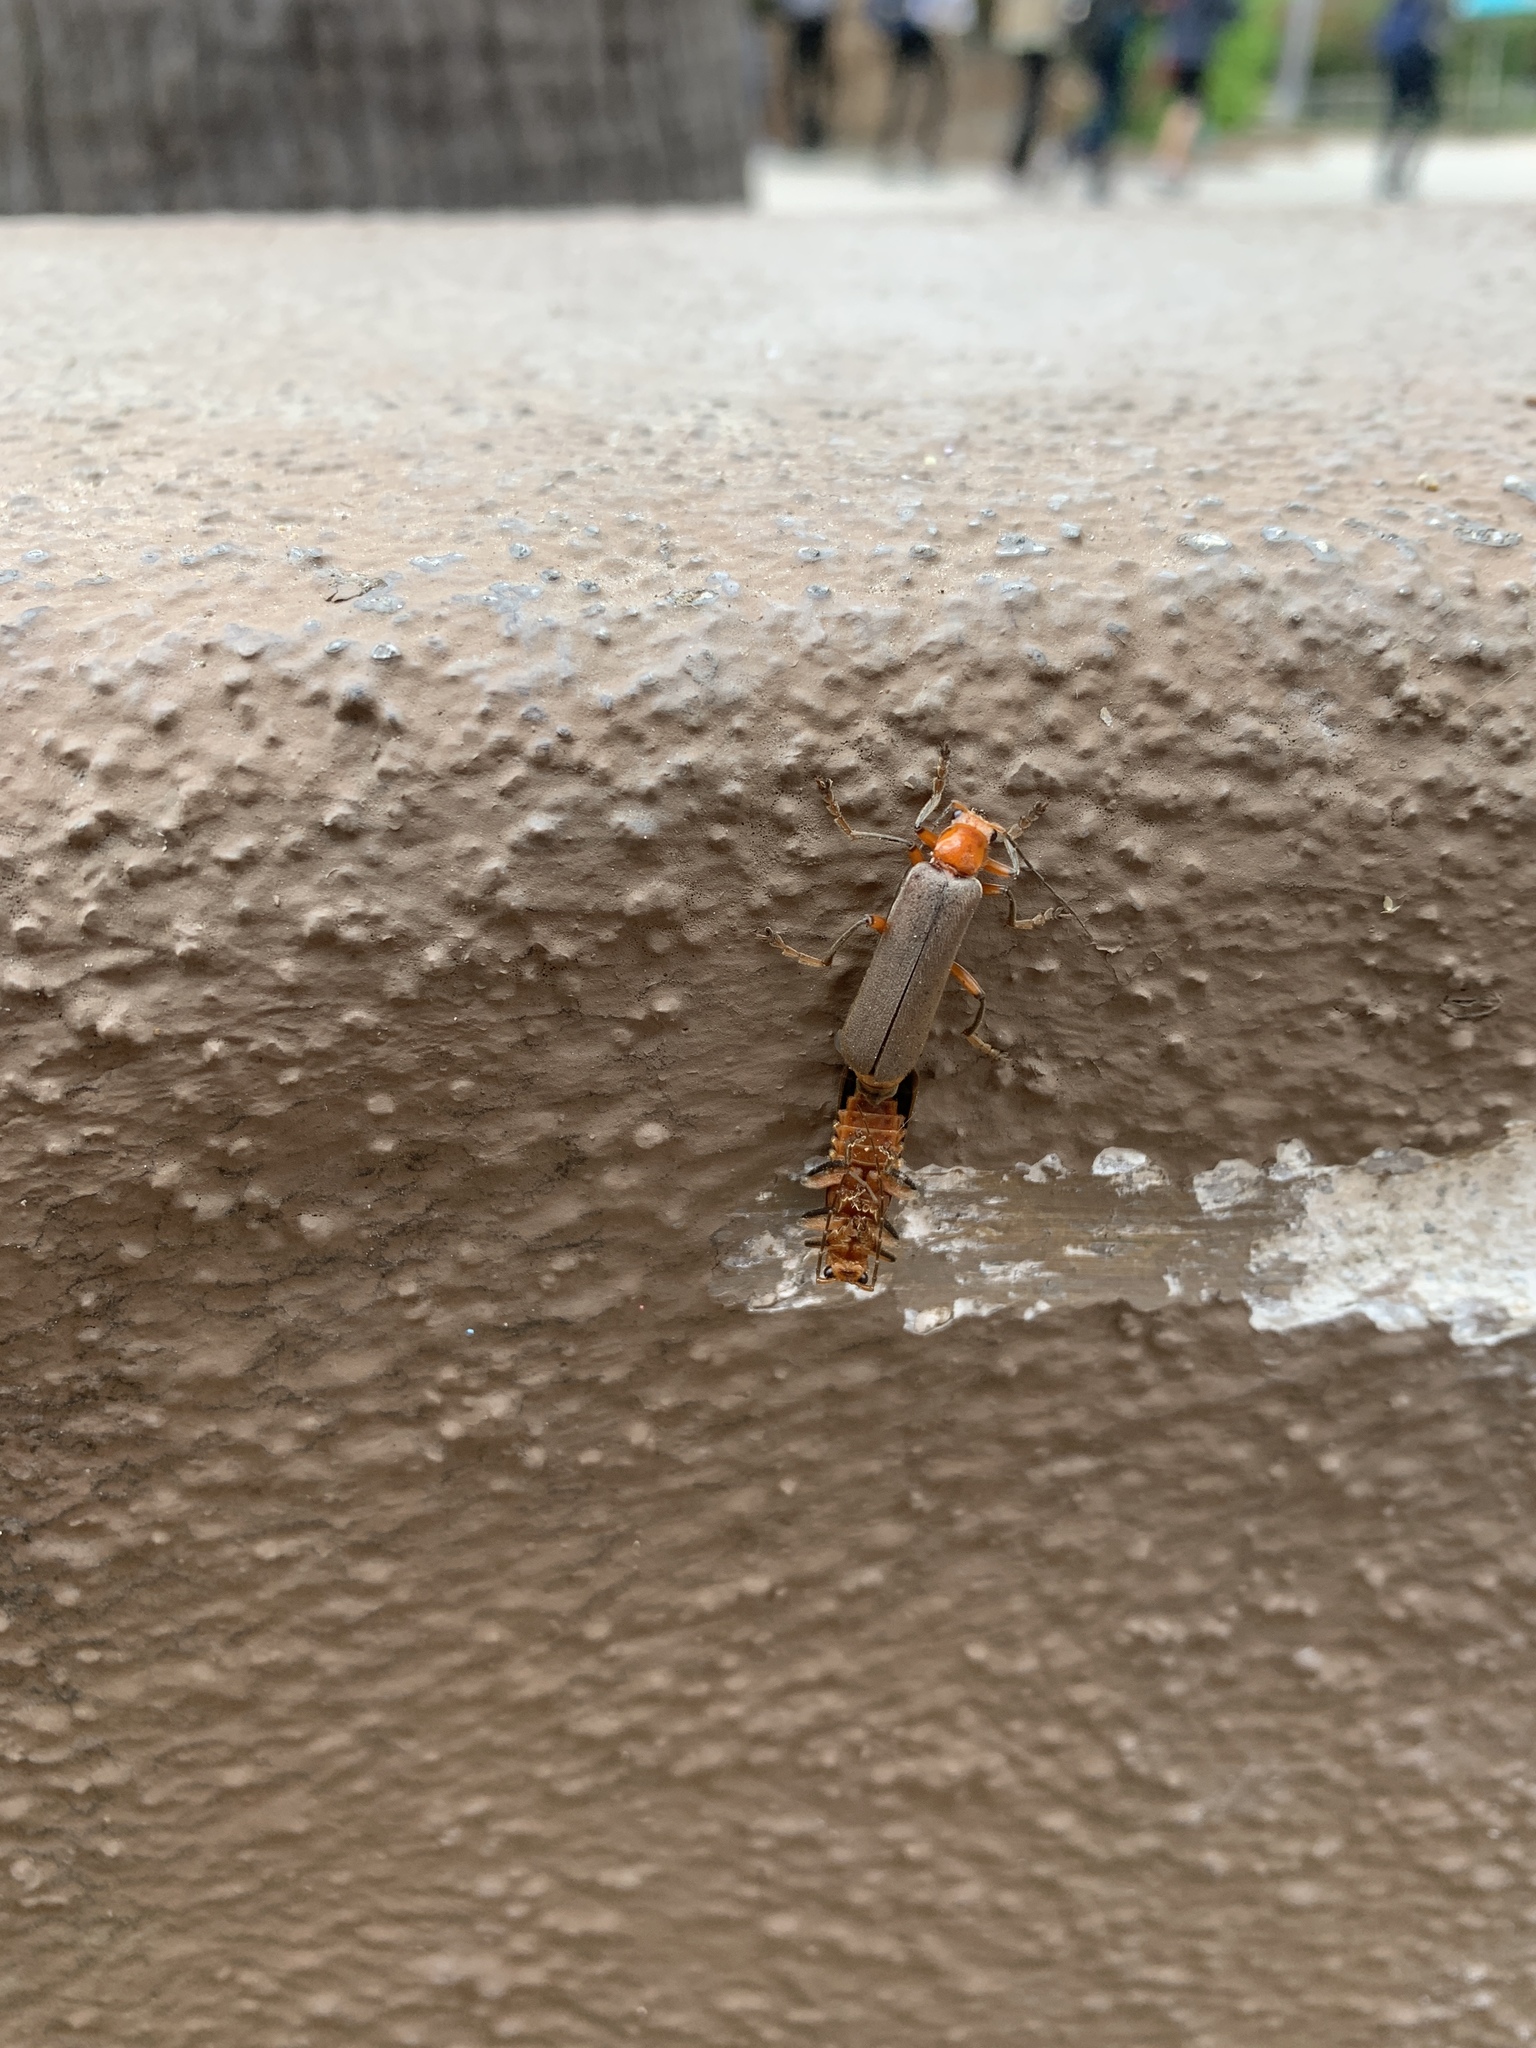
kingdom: Animalia
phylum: Arthropoda
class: Insecta
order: Coleoptera
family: Cantharidae
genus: Pacificanthia
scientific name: Pacificanthia consors
